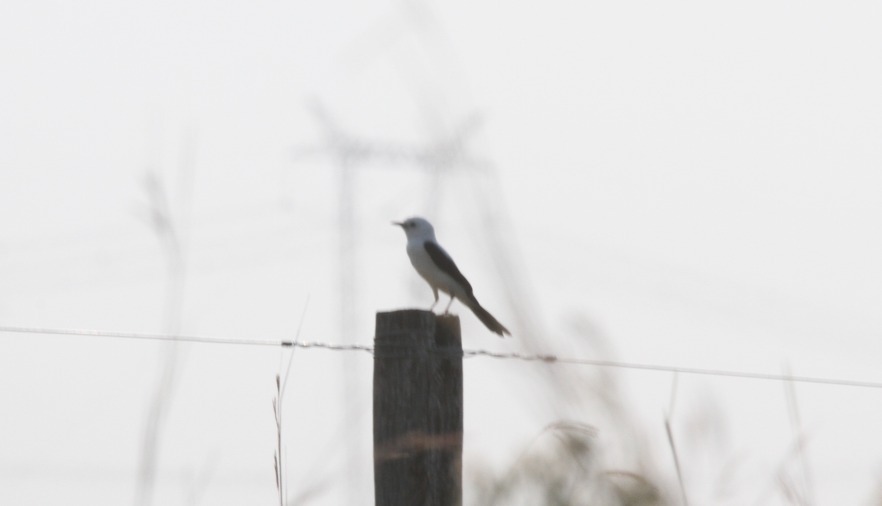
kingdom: Animalia
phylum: Chordata
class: Aves
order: Passeriformes
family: Tyrannidae
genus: Heteroxolmis
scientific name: Heteroxolmis dominicana
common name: Black-and-white monjita
